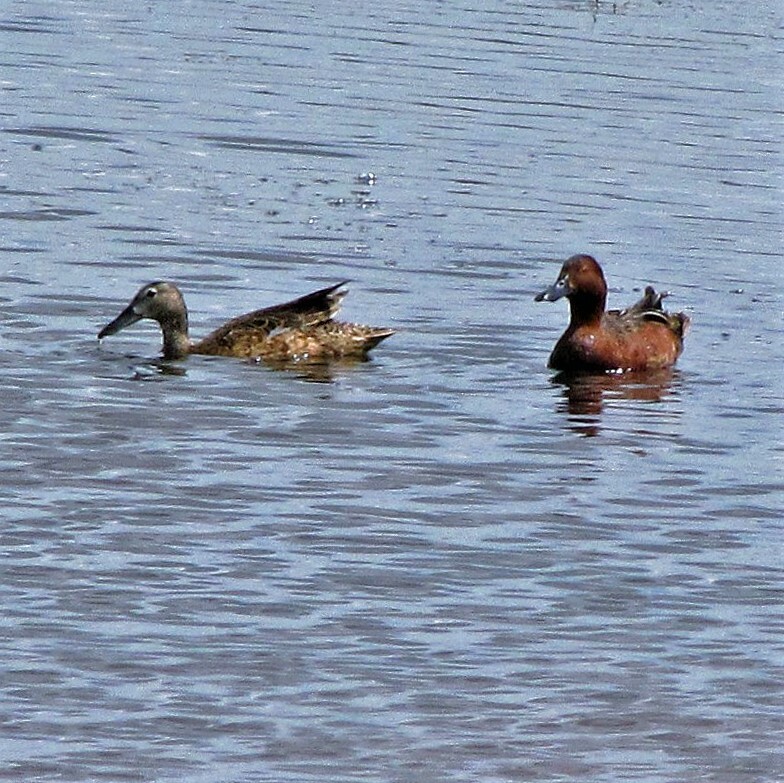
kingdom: Animalia
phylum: Chordata
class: Aves
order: Anseriformes
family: Anatidae
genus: Spatula
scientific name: Spatula cyanoptera
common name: Cinnamon teal
